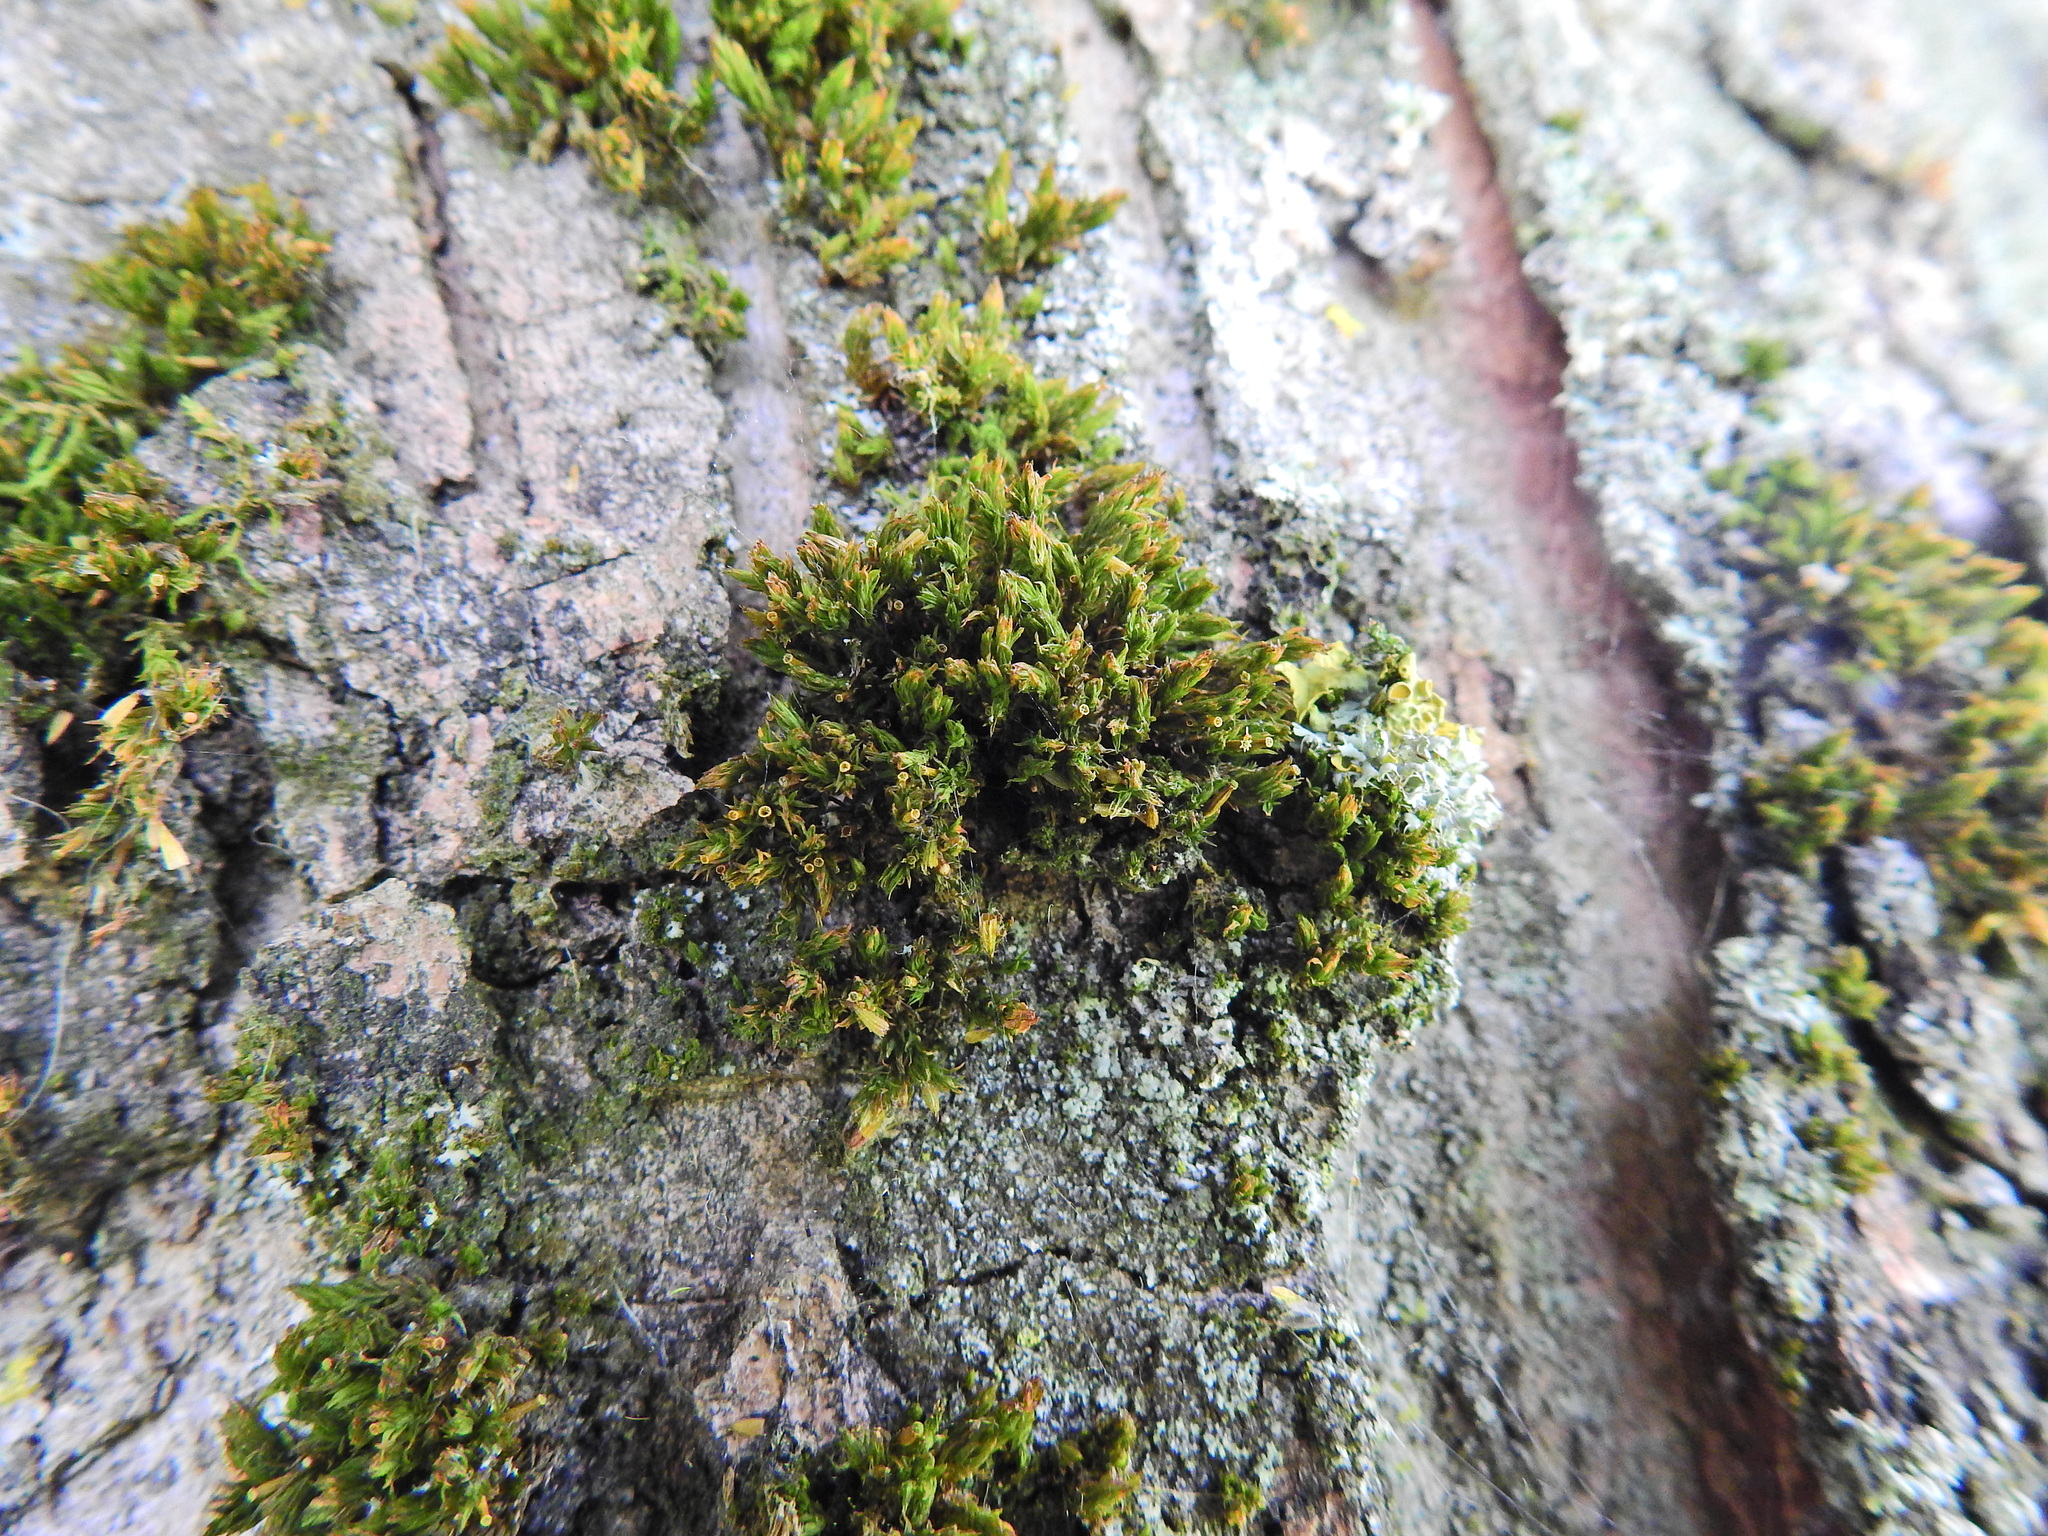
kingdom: Plantae
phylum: Bryophyta
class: Bryopsida
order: Orthotrichales
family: Orthotrichaceae
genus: Lewinskya
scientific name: Lewinskya affinis
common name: Wood bristle-moss
